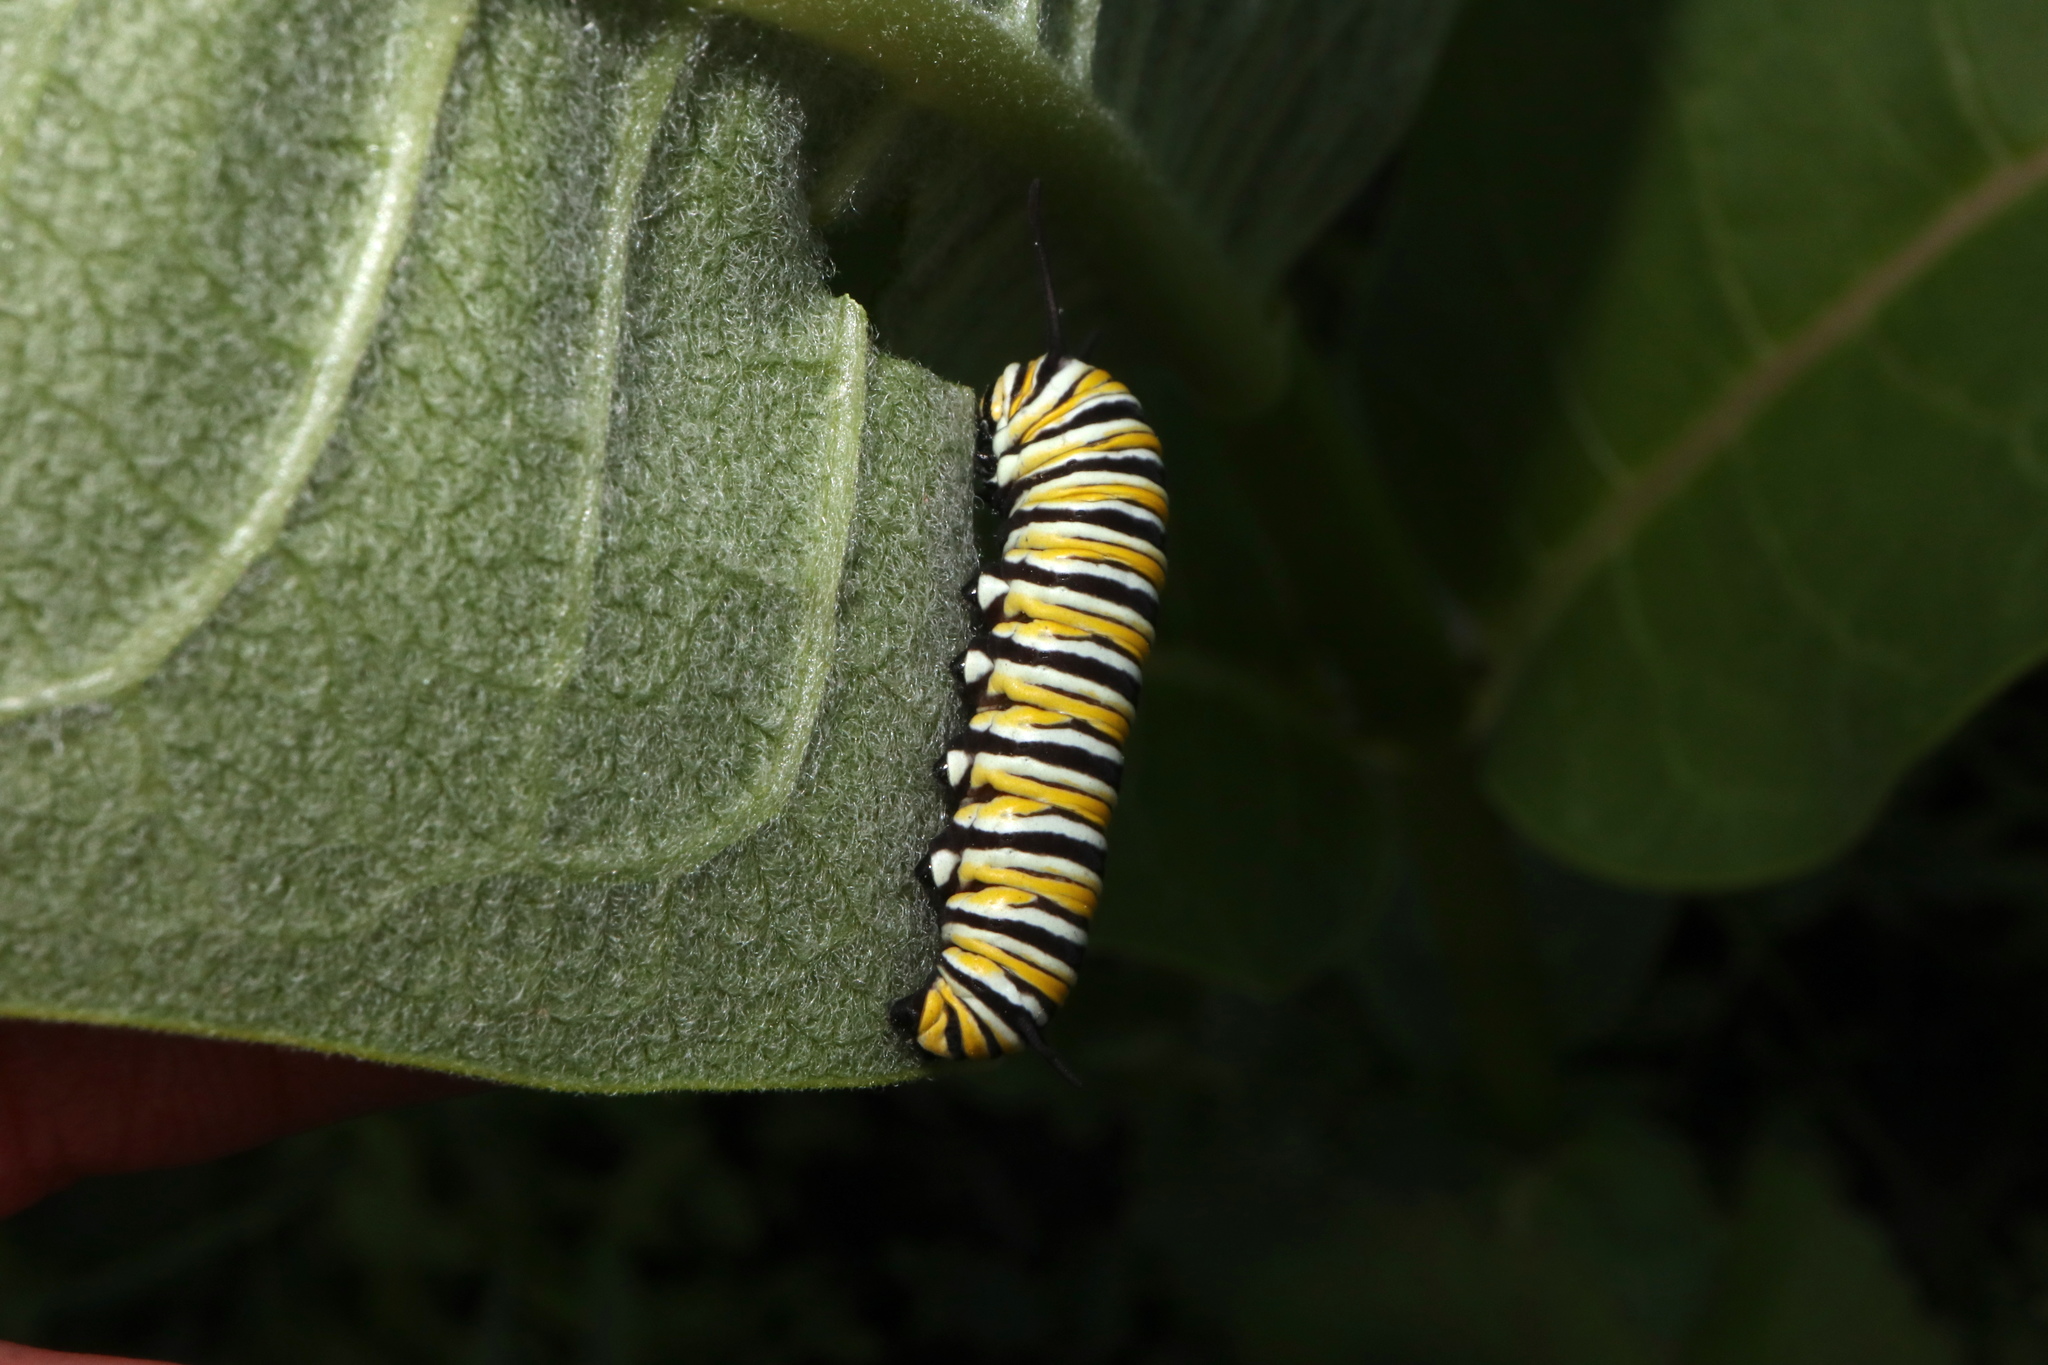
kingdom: Animalia
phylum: Arthropoda
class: Insecta
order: Lepidoptera
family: Nymphalidae
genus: Danaus
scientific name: Danaus plexippus
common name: Monarch
